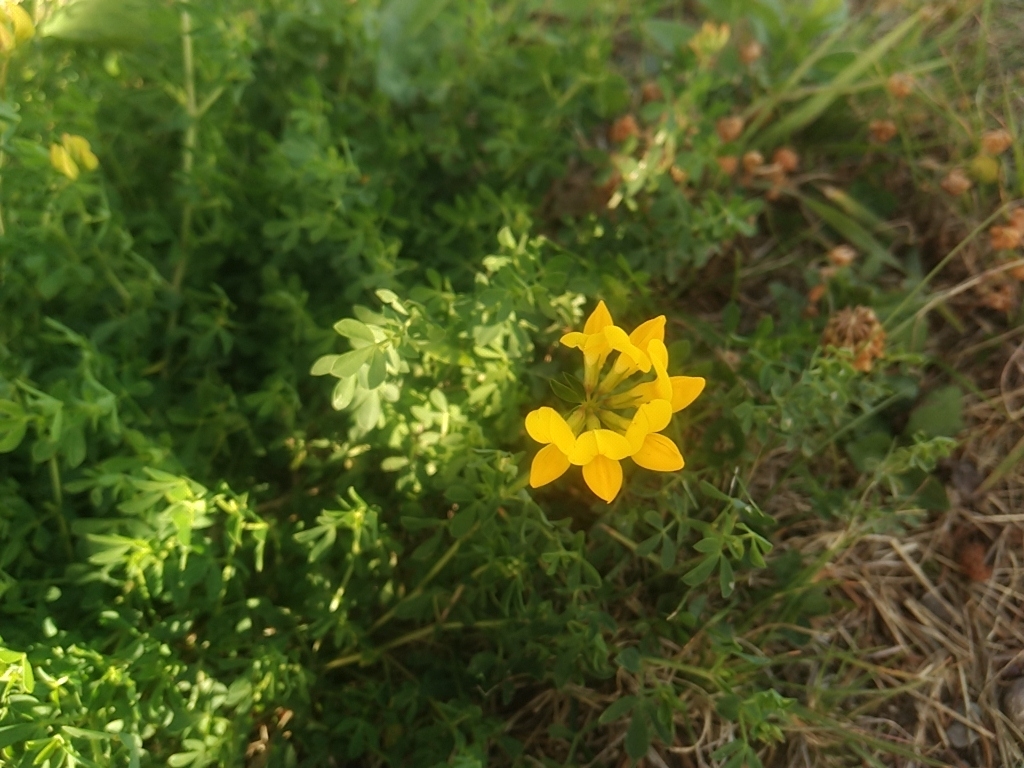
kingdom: Plantae
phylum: Tracheophyta
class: Magnoliopsida
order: Fabales
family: Fabaceae
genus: Lotus
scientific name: Lotus corniculatus
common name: Common bird's-foot-trefoil
